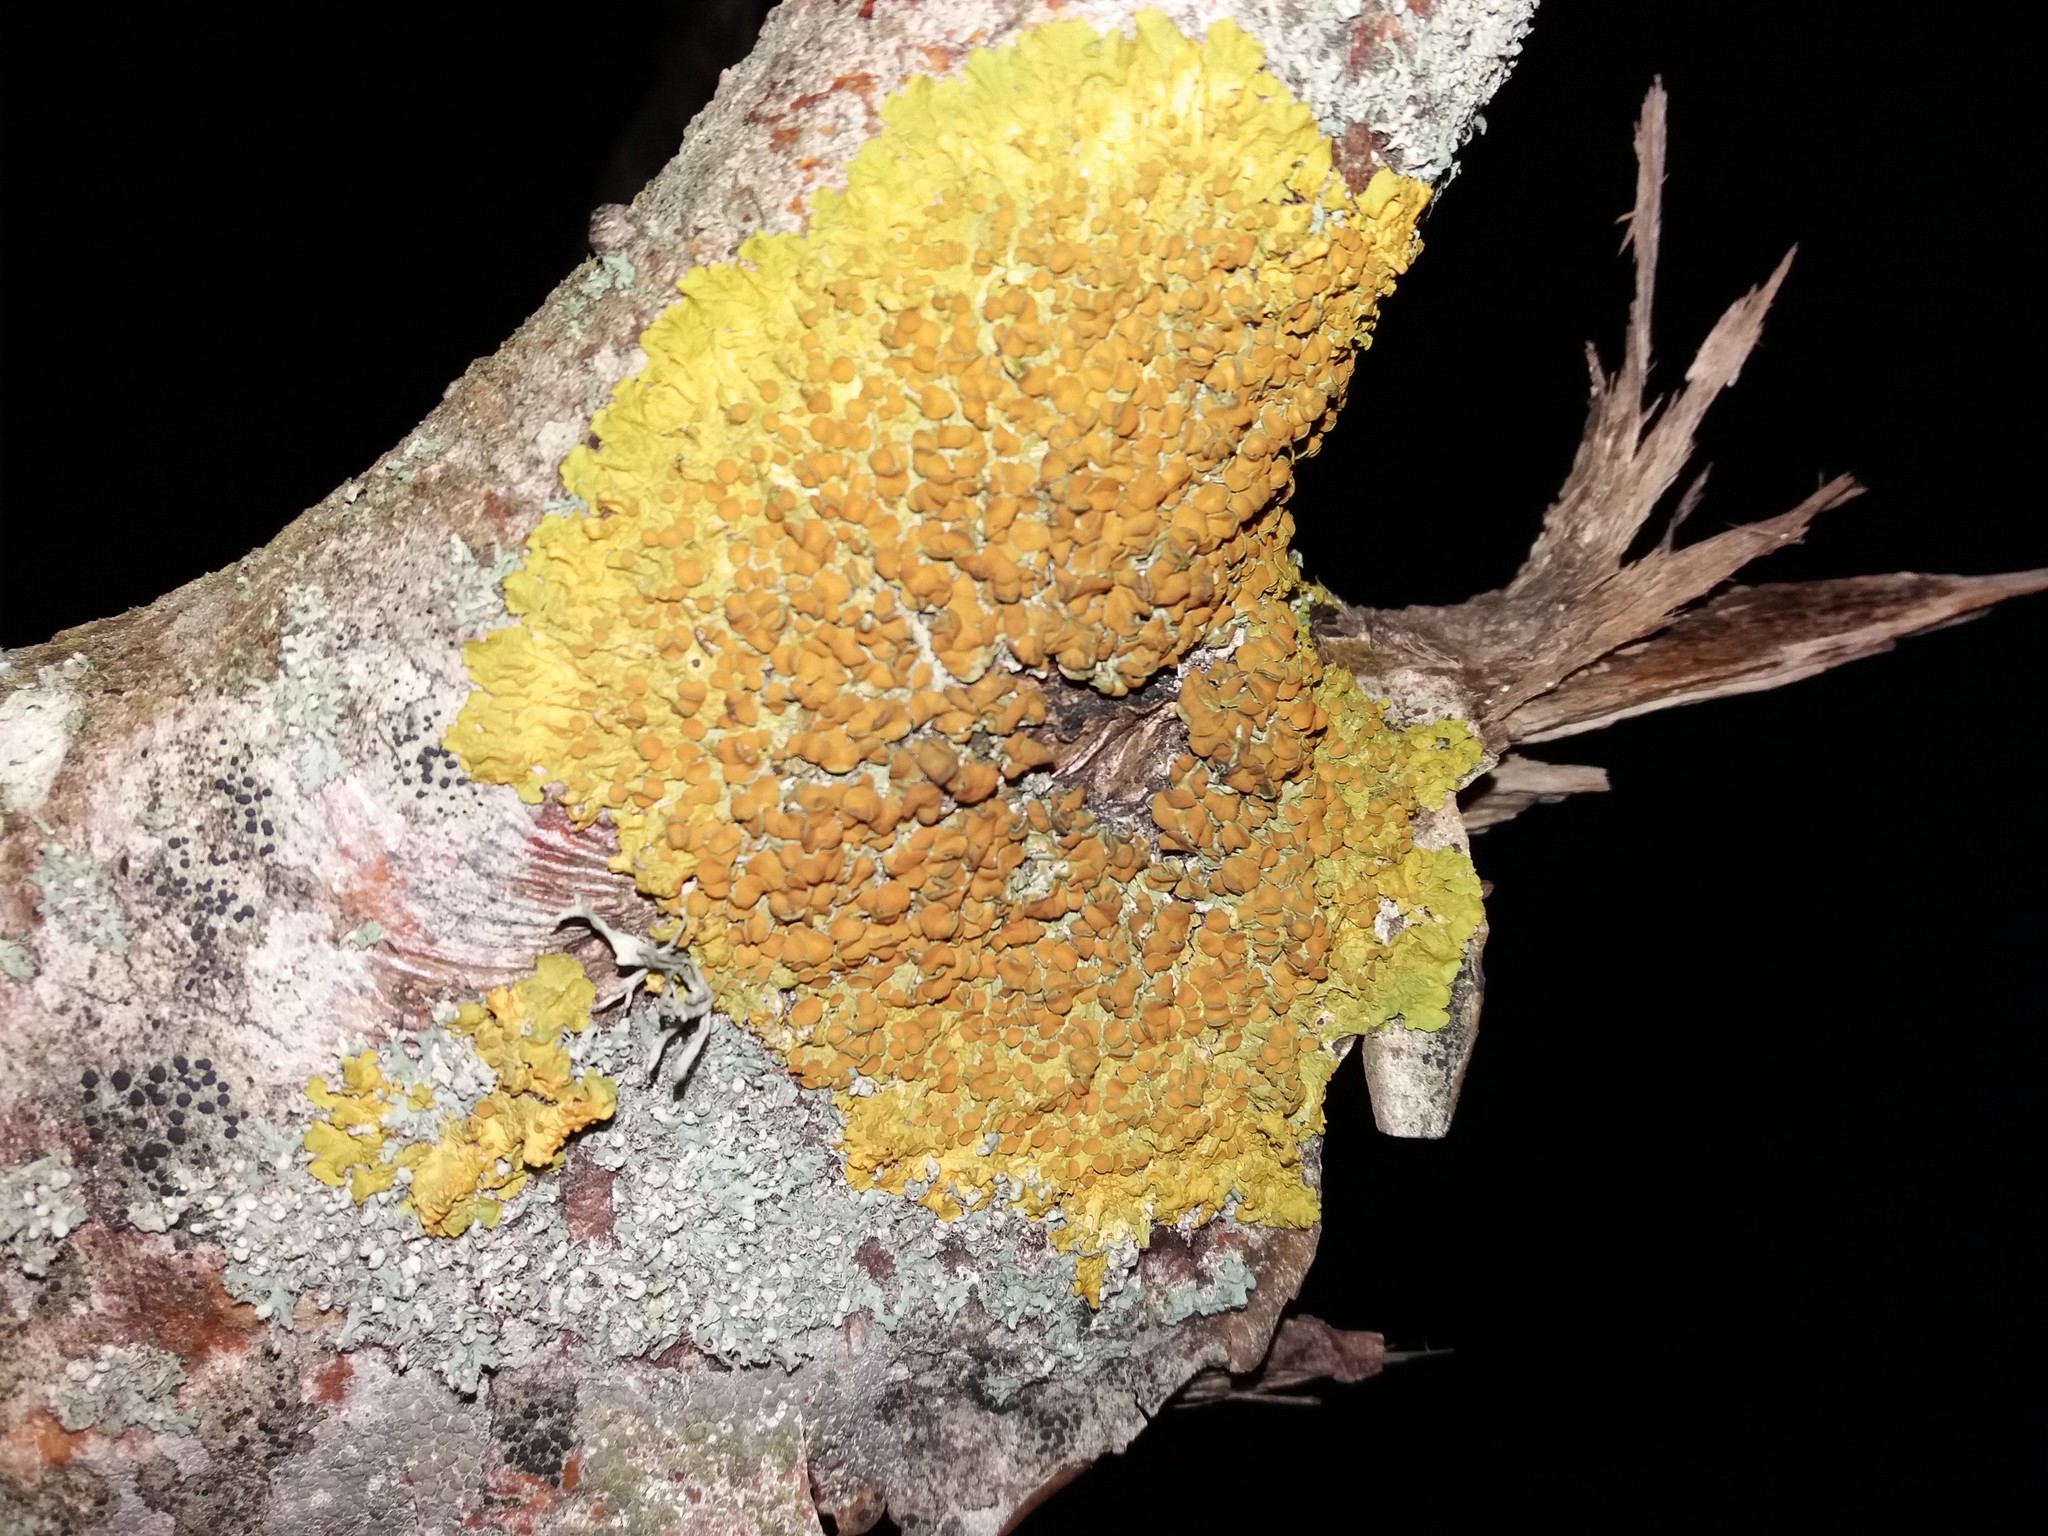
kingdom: Fungi
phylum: Ascomycota
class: Lecanoromycetes
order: Teloschistales
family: Teloschistaceae
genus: Xanthoria
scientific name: Xanthoria parietina
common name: Common orange lichen
